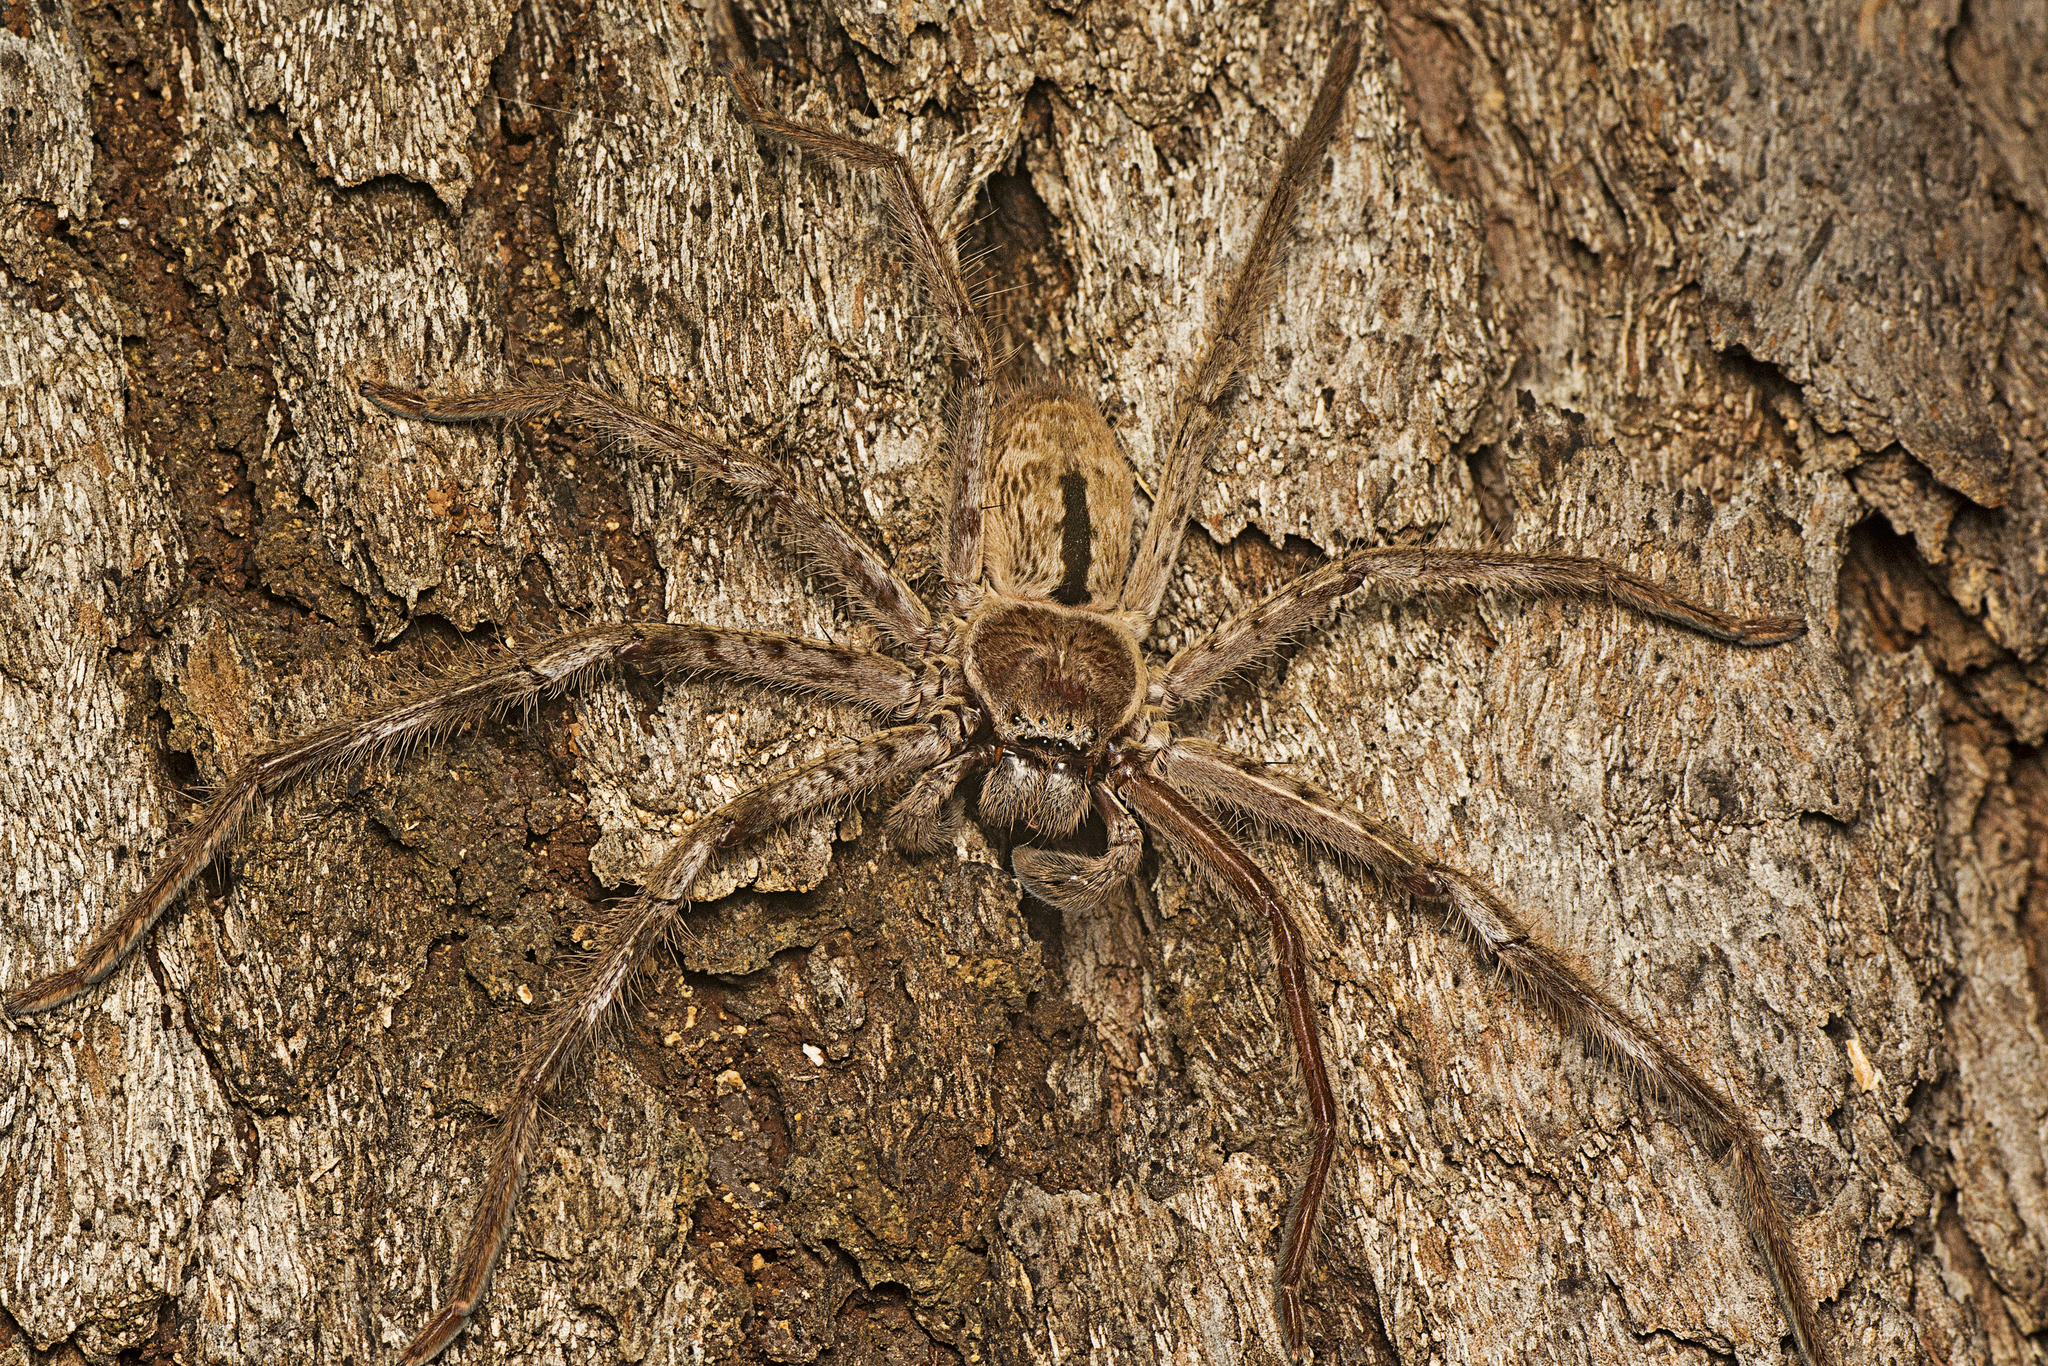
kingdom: Animalia
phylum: Arthropoda
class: Arachnida
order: Araneae
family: Sparassidae
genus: Holconia
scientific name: Holconia immanis
